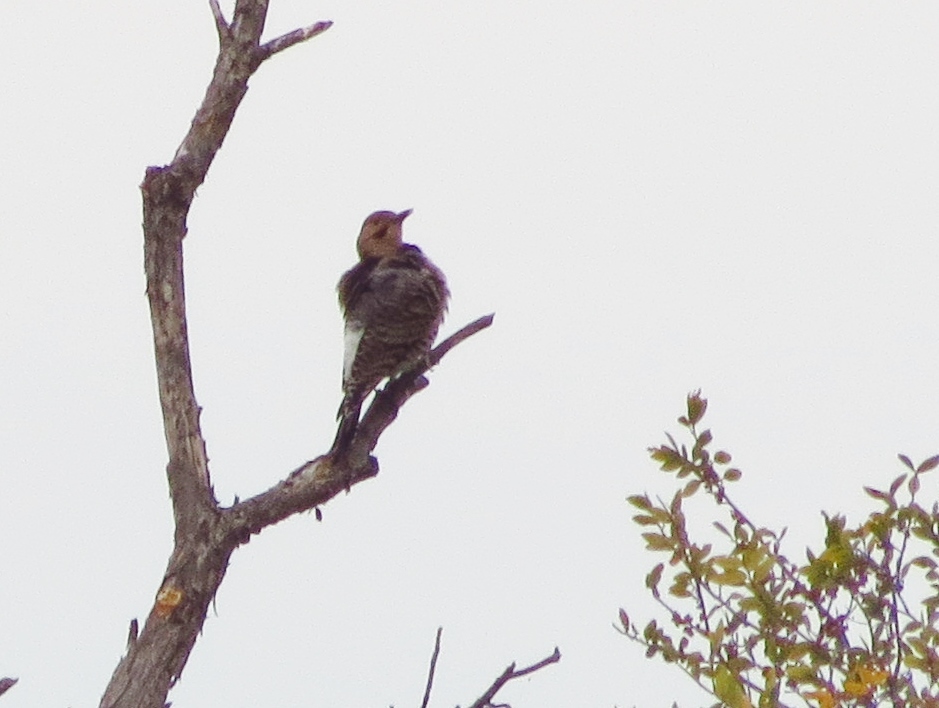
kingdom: Animalia
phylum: Chordata
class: Aves
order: Piciformes
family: Picidae
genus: Colaptes
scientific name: Colaptes auratus
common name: Northern flicker
